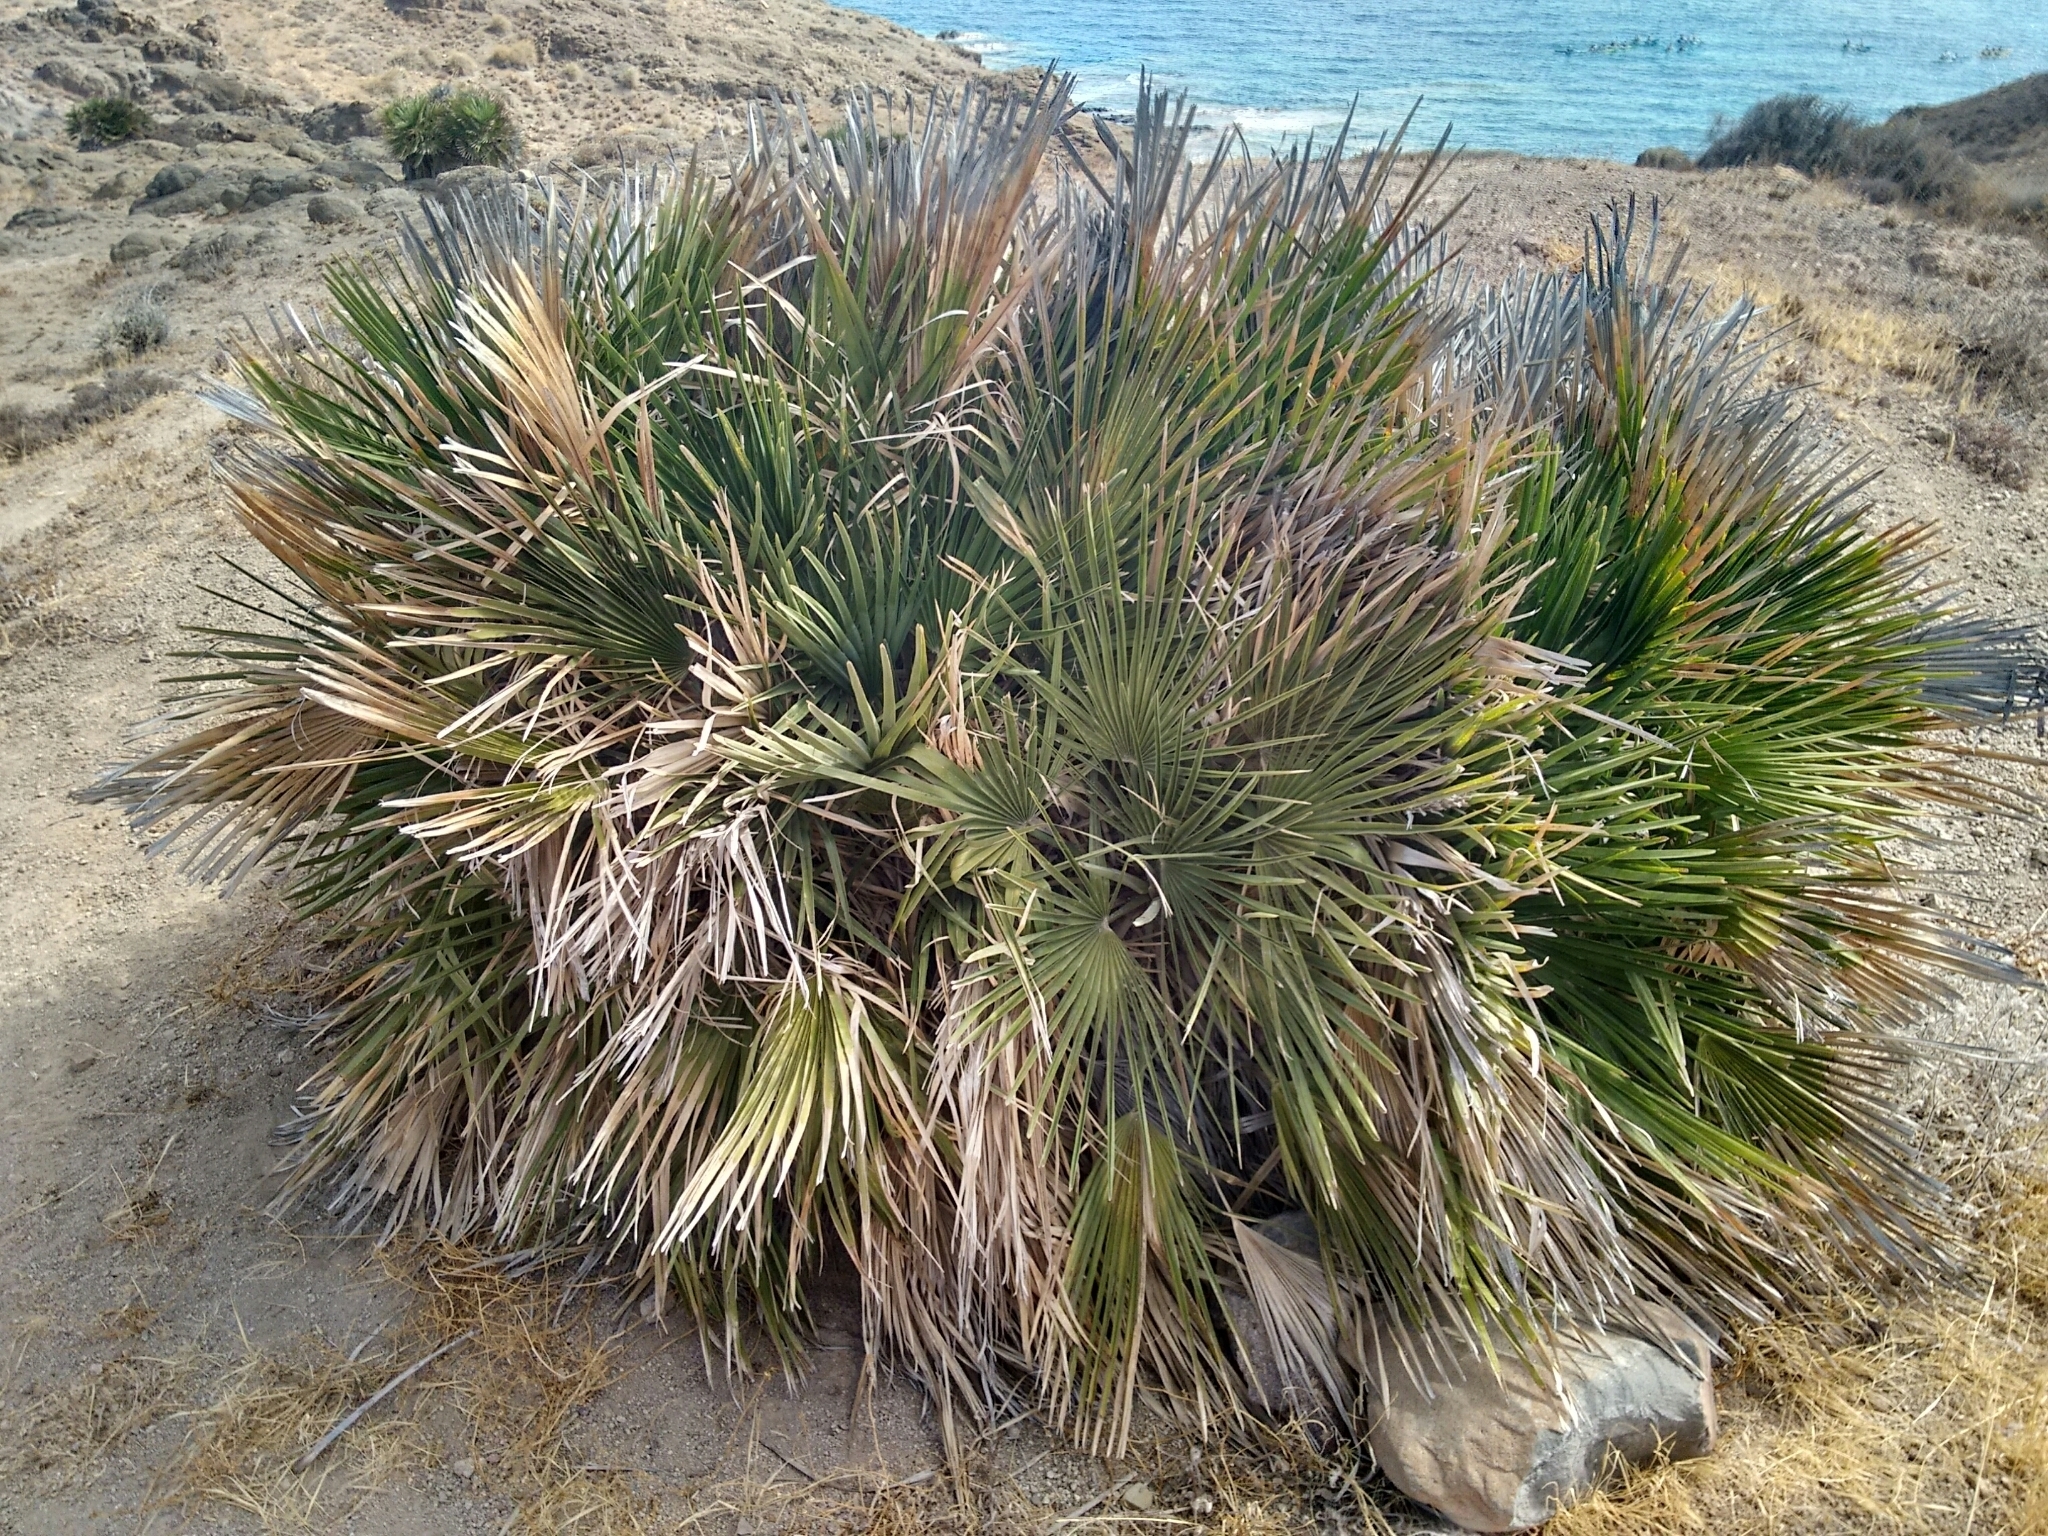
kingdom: Plantae
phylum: Tracheophyta
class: Liliopsida
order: Arecales
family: Arecaceae
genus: Chamaerops
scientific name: Chamaerops humilis
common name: Dwarf fan palm
